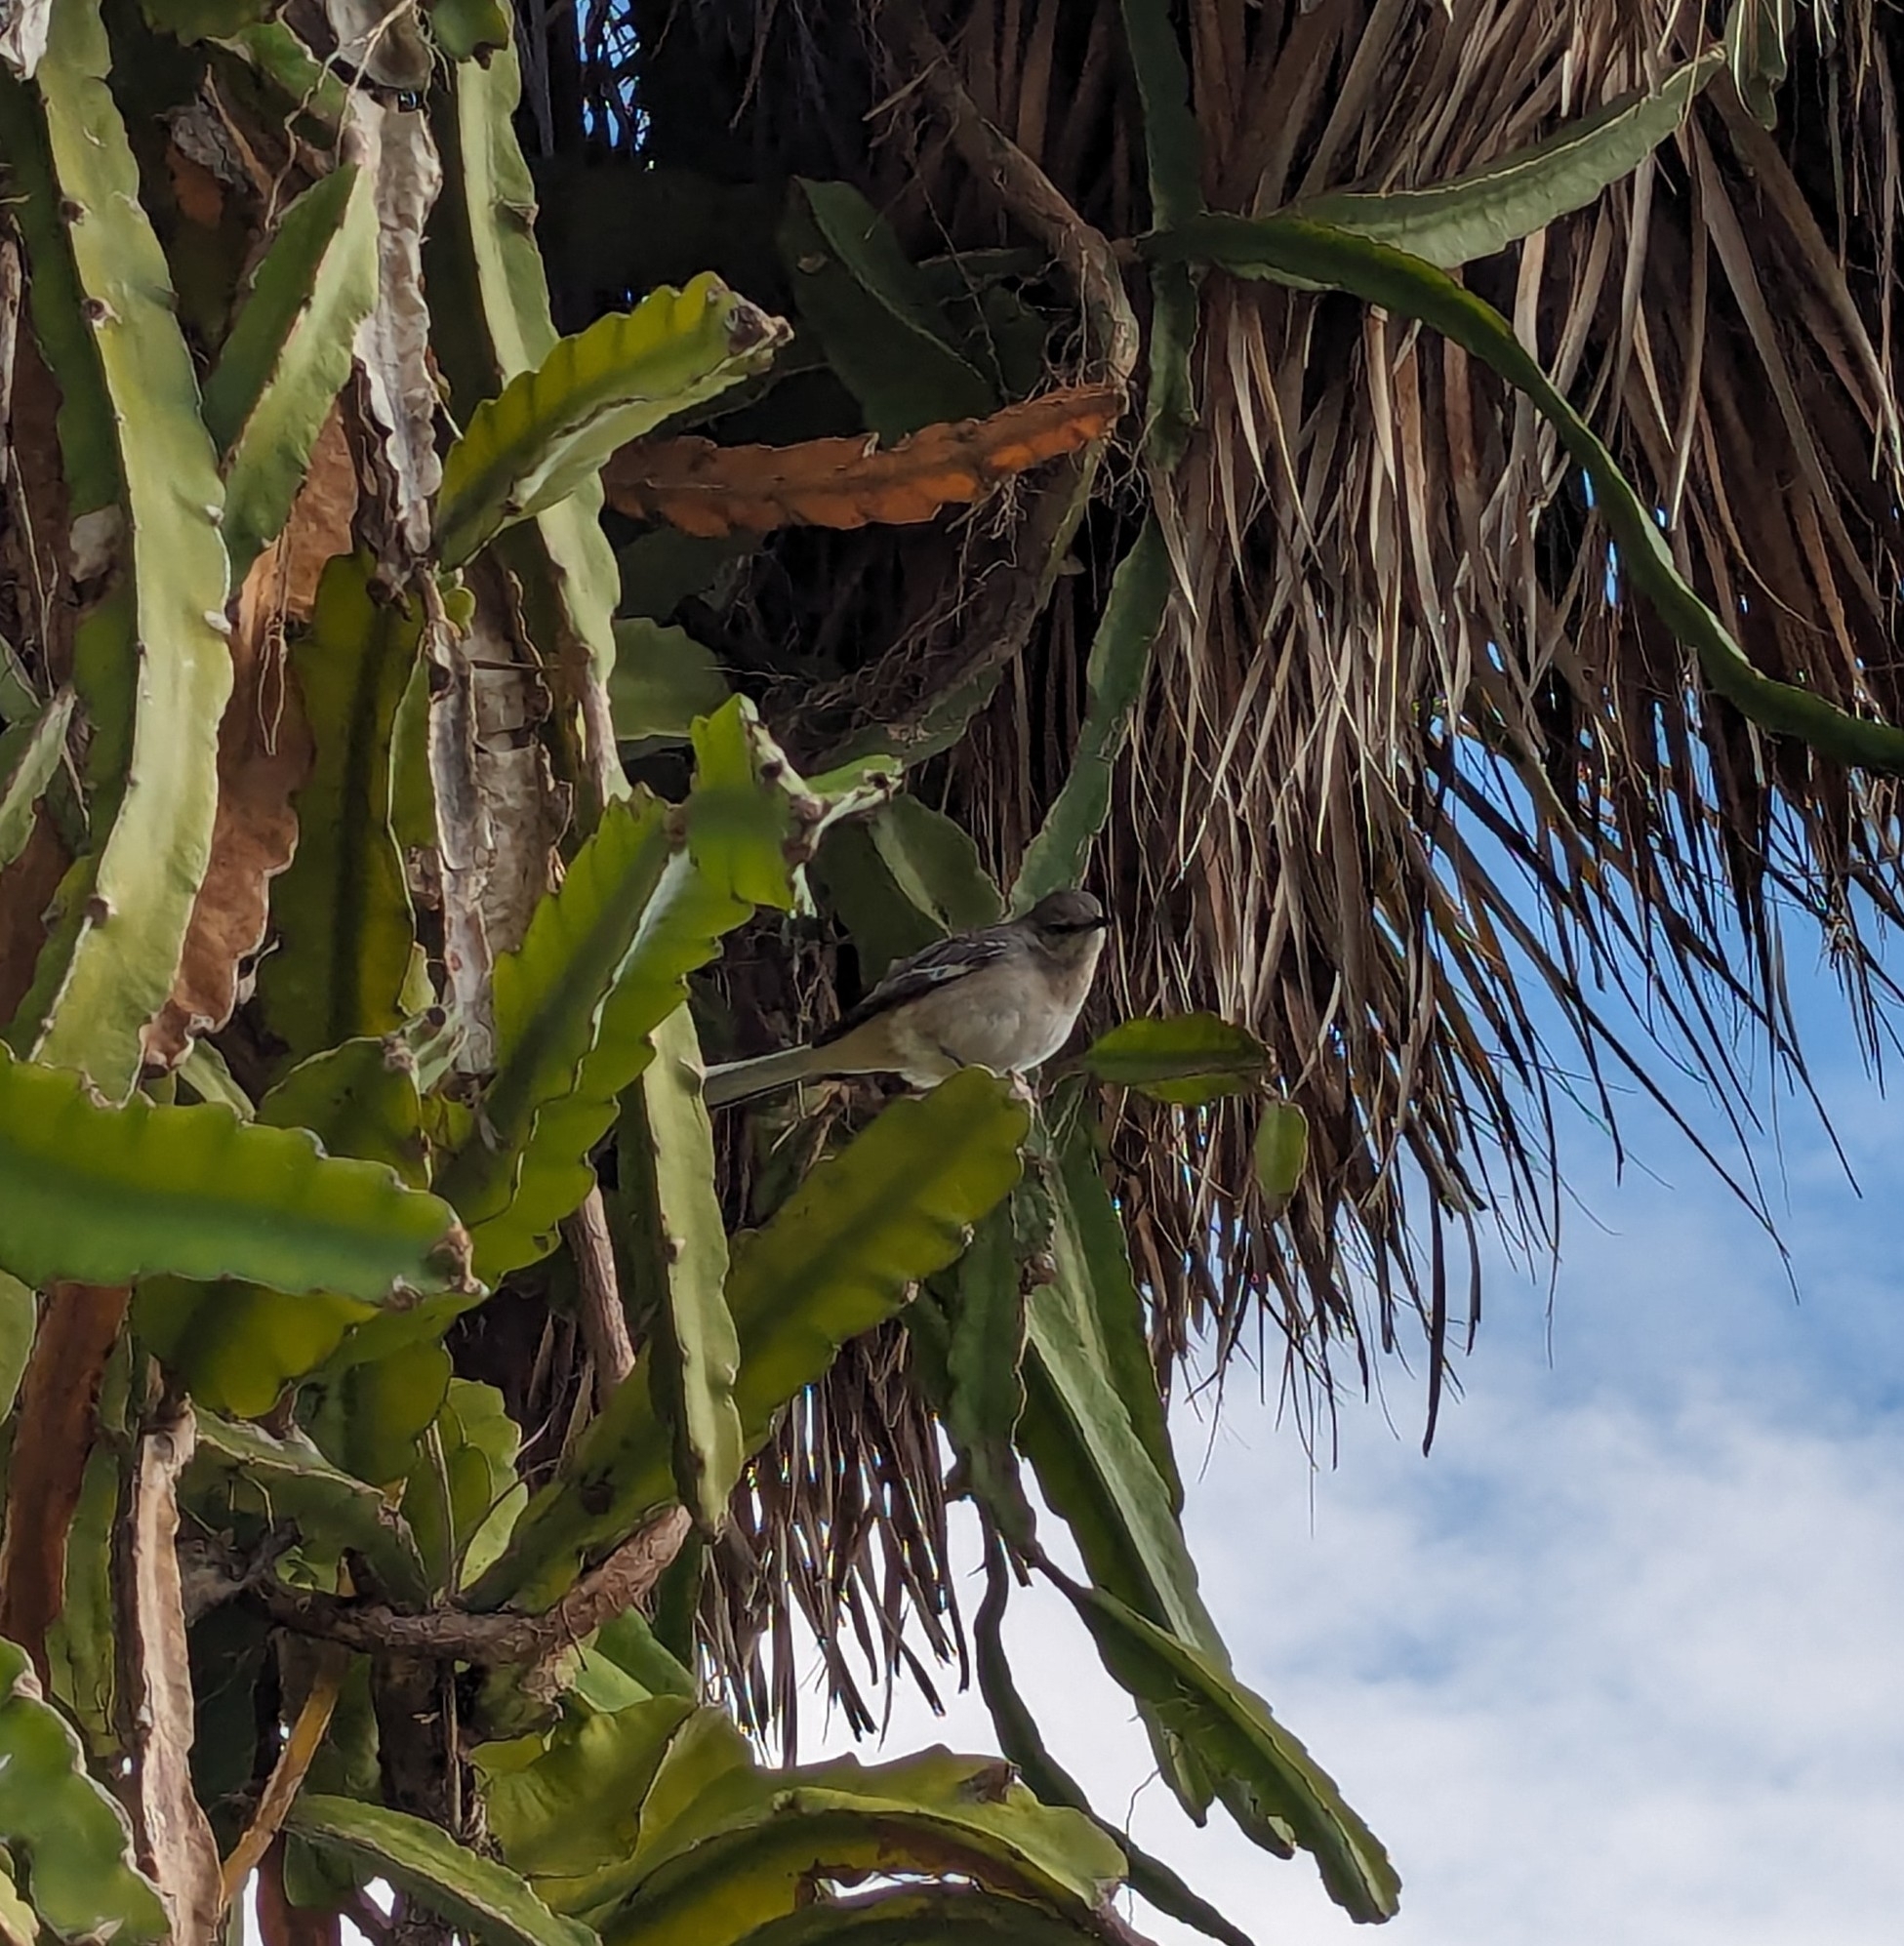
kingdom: Animalia
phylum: Chordata
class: Aves
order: Passeriformes
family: Mimidae
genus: Mimus
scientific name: Mimus polyglottos
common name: Northern mockingbird
